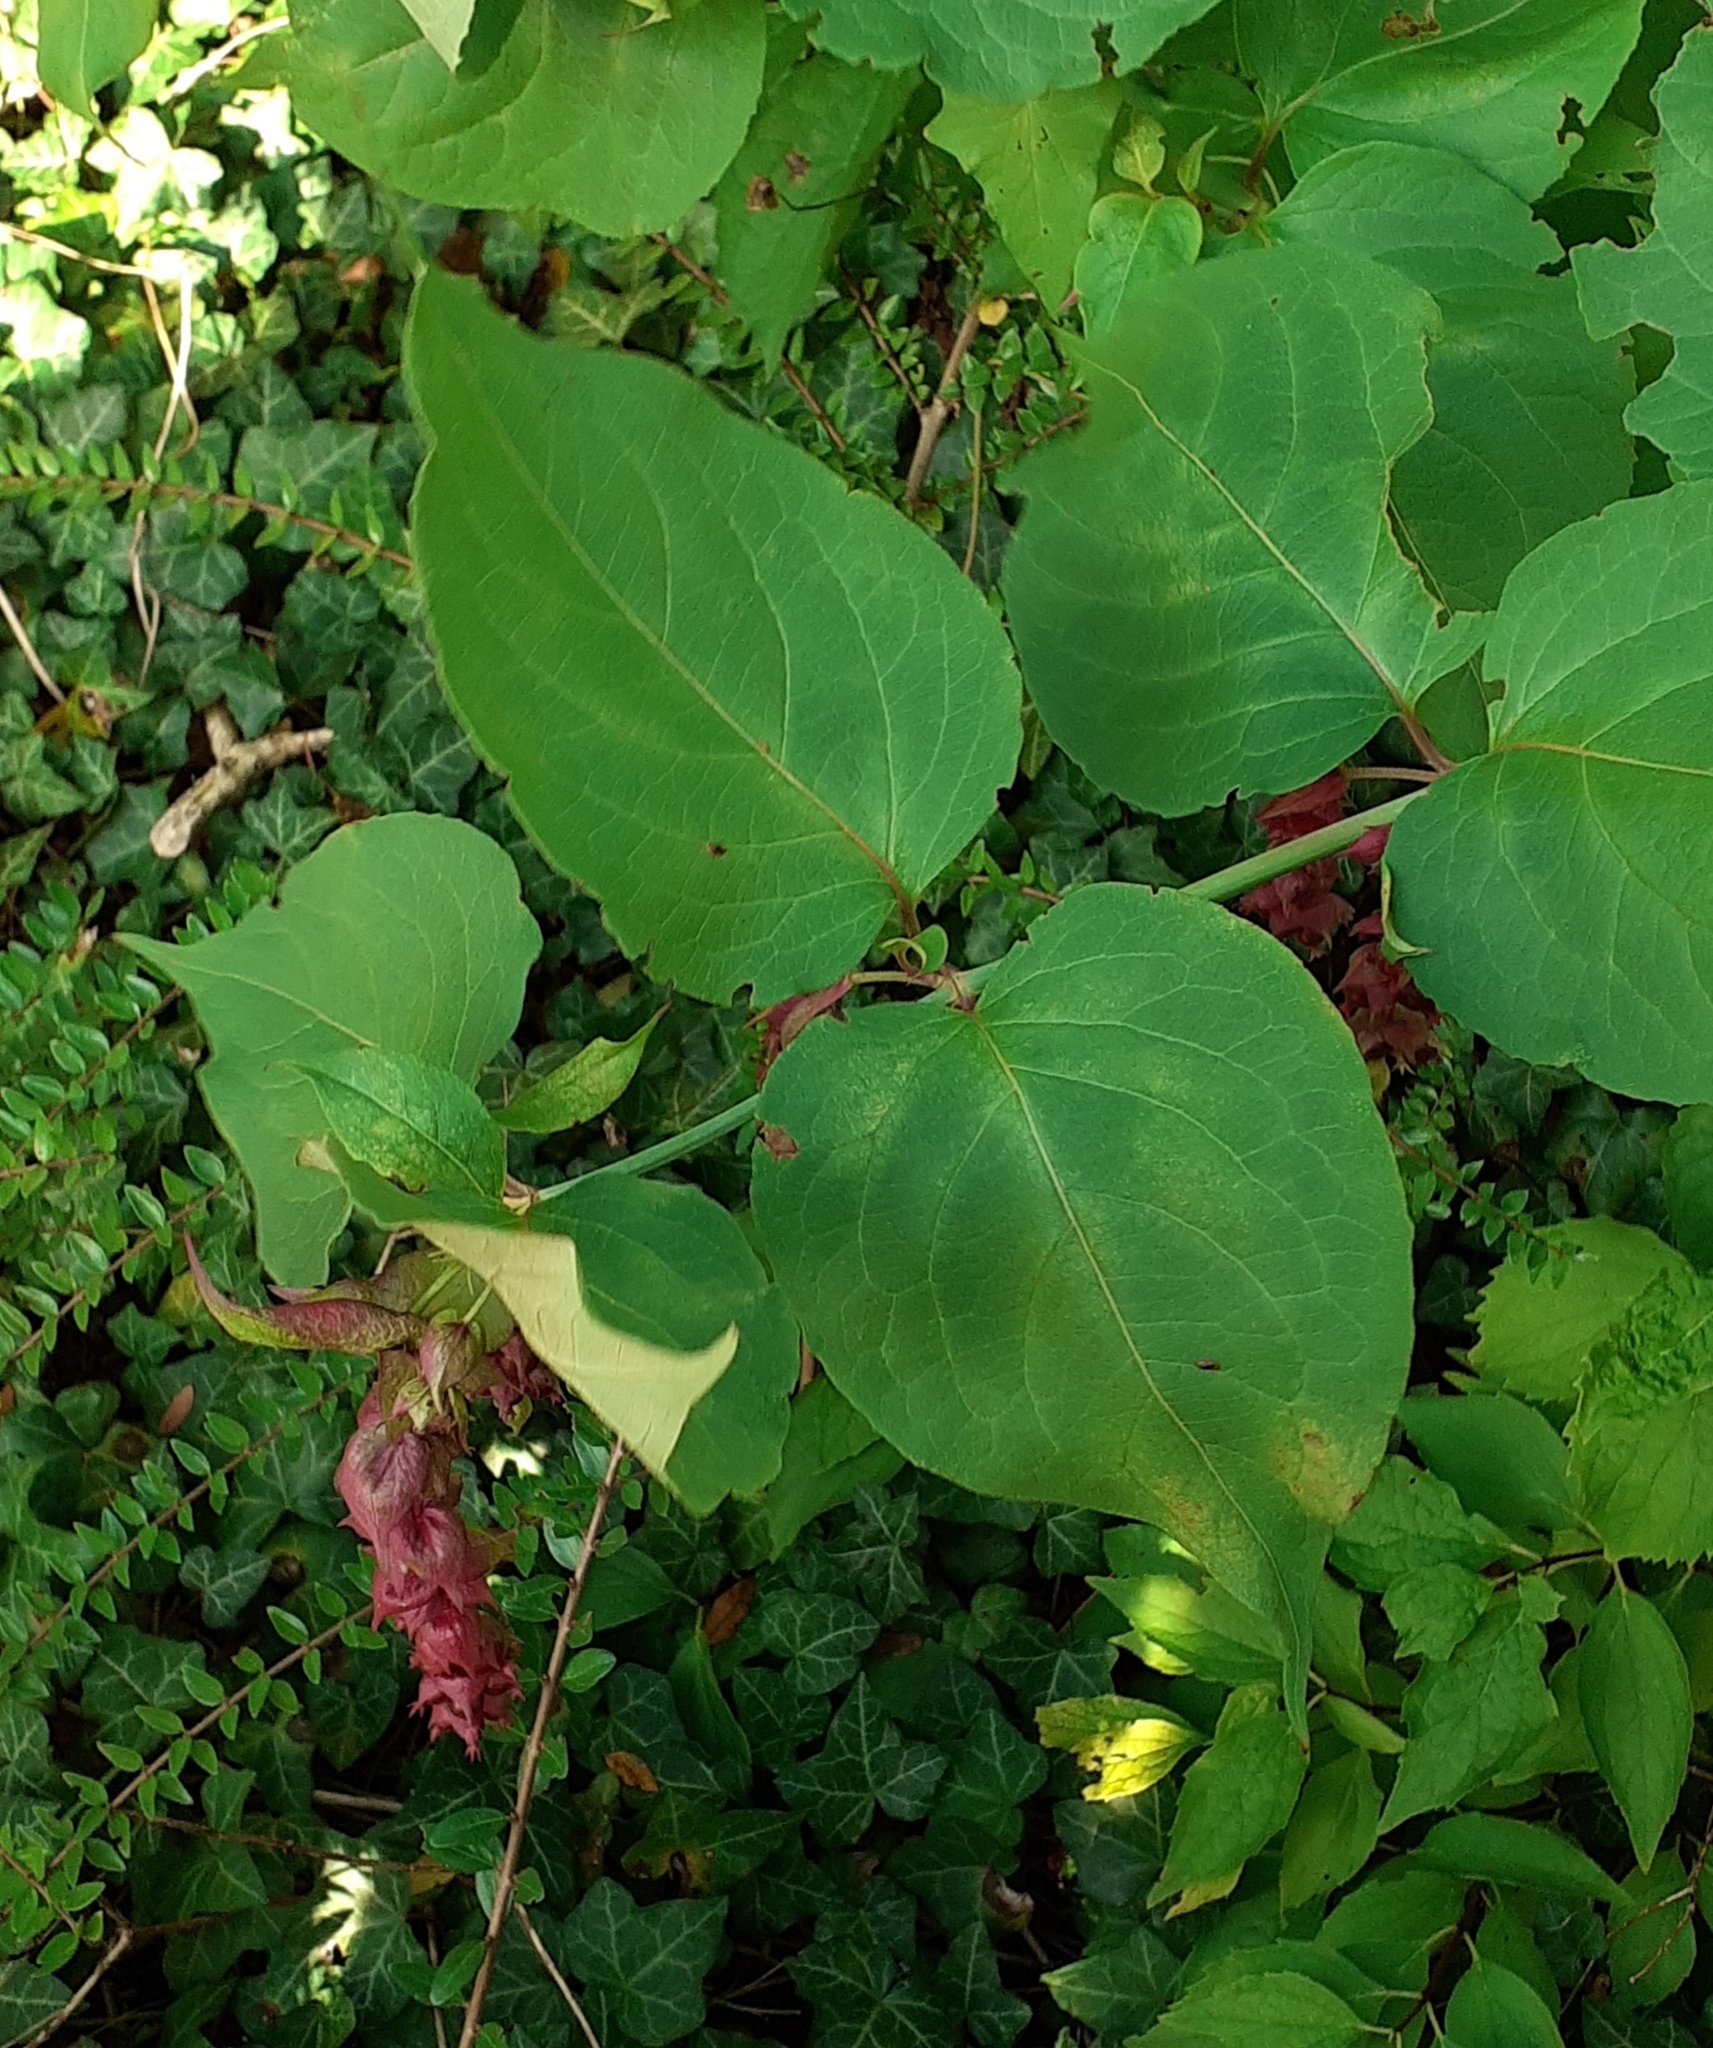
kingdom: Plantae
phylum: Tracheophyta
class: Magnoliopsida
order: Dipsacales
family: Caprifoliaceae
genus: Leycesteria
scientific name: Leycesteria formosa
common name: Himalayan honeysuckle
